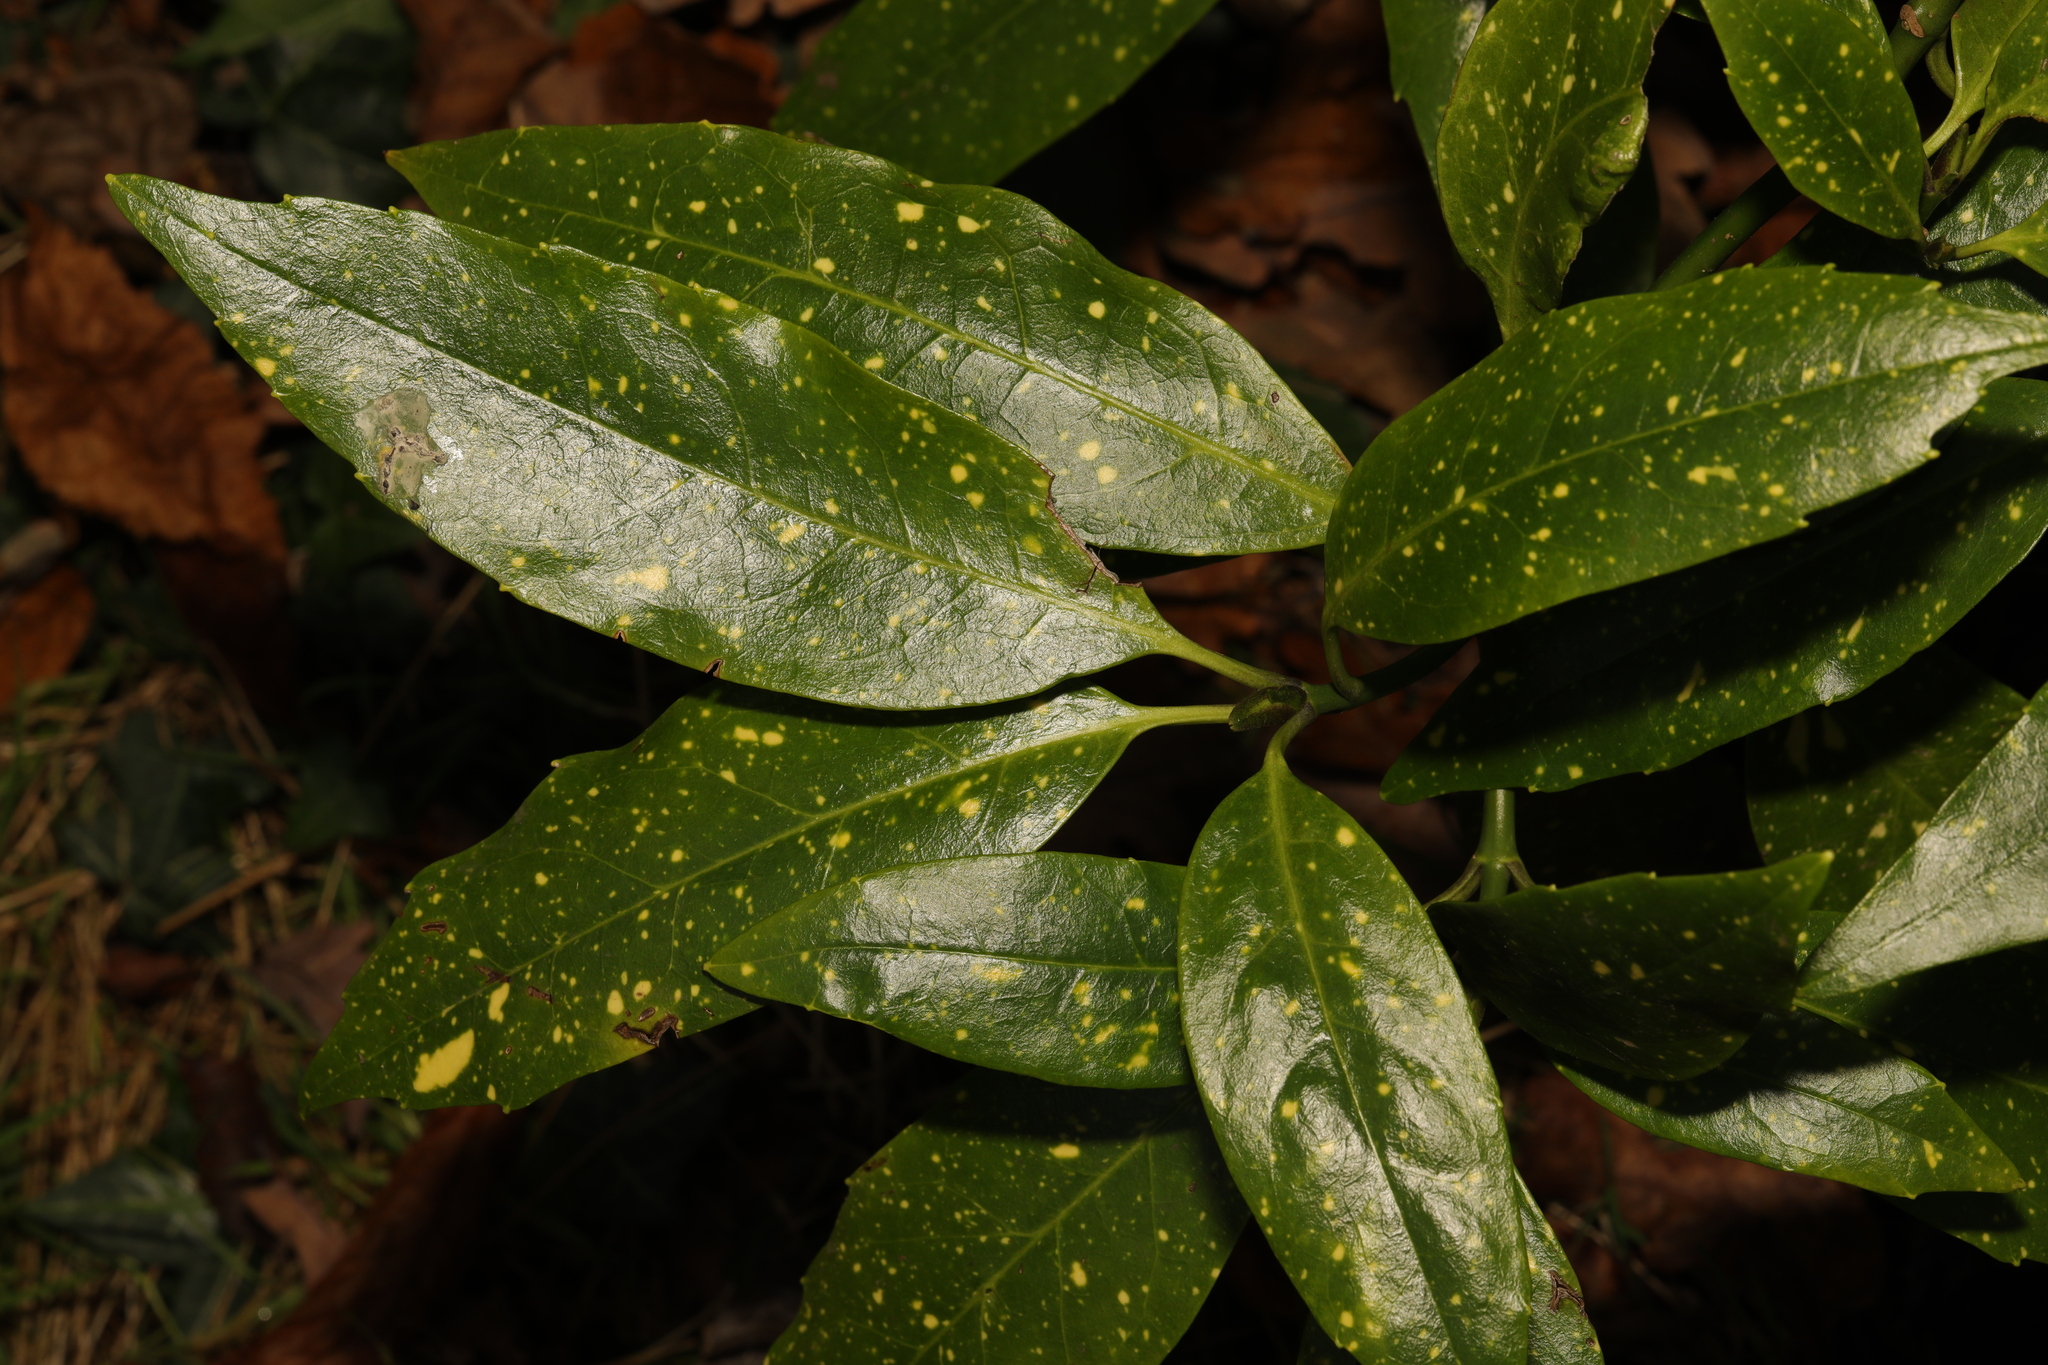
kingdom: Plantae
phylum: Tracheophyta
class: Magnoliopsida
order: Garryales
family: Garryaceae
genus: Aucuba
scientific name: Aucuba japonica
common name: Spotted-laurel
